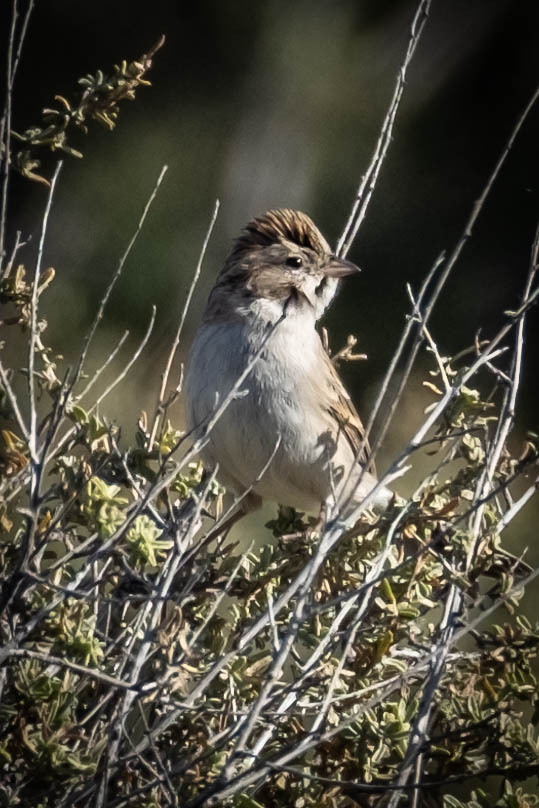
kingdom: Animalia
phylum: Chordata
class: Aves
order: Passeriformes
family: Passerellidae
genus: Spizella
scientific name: Spizella breweri
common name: Brewer's sparrow
